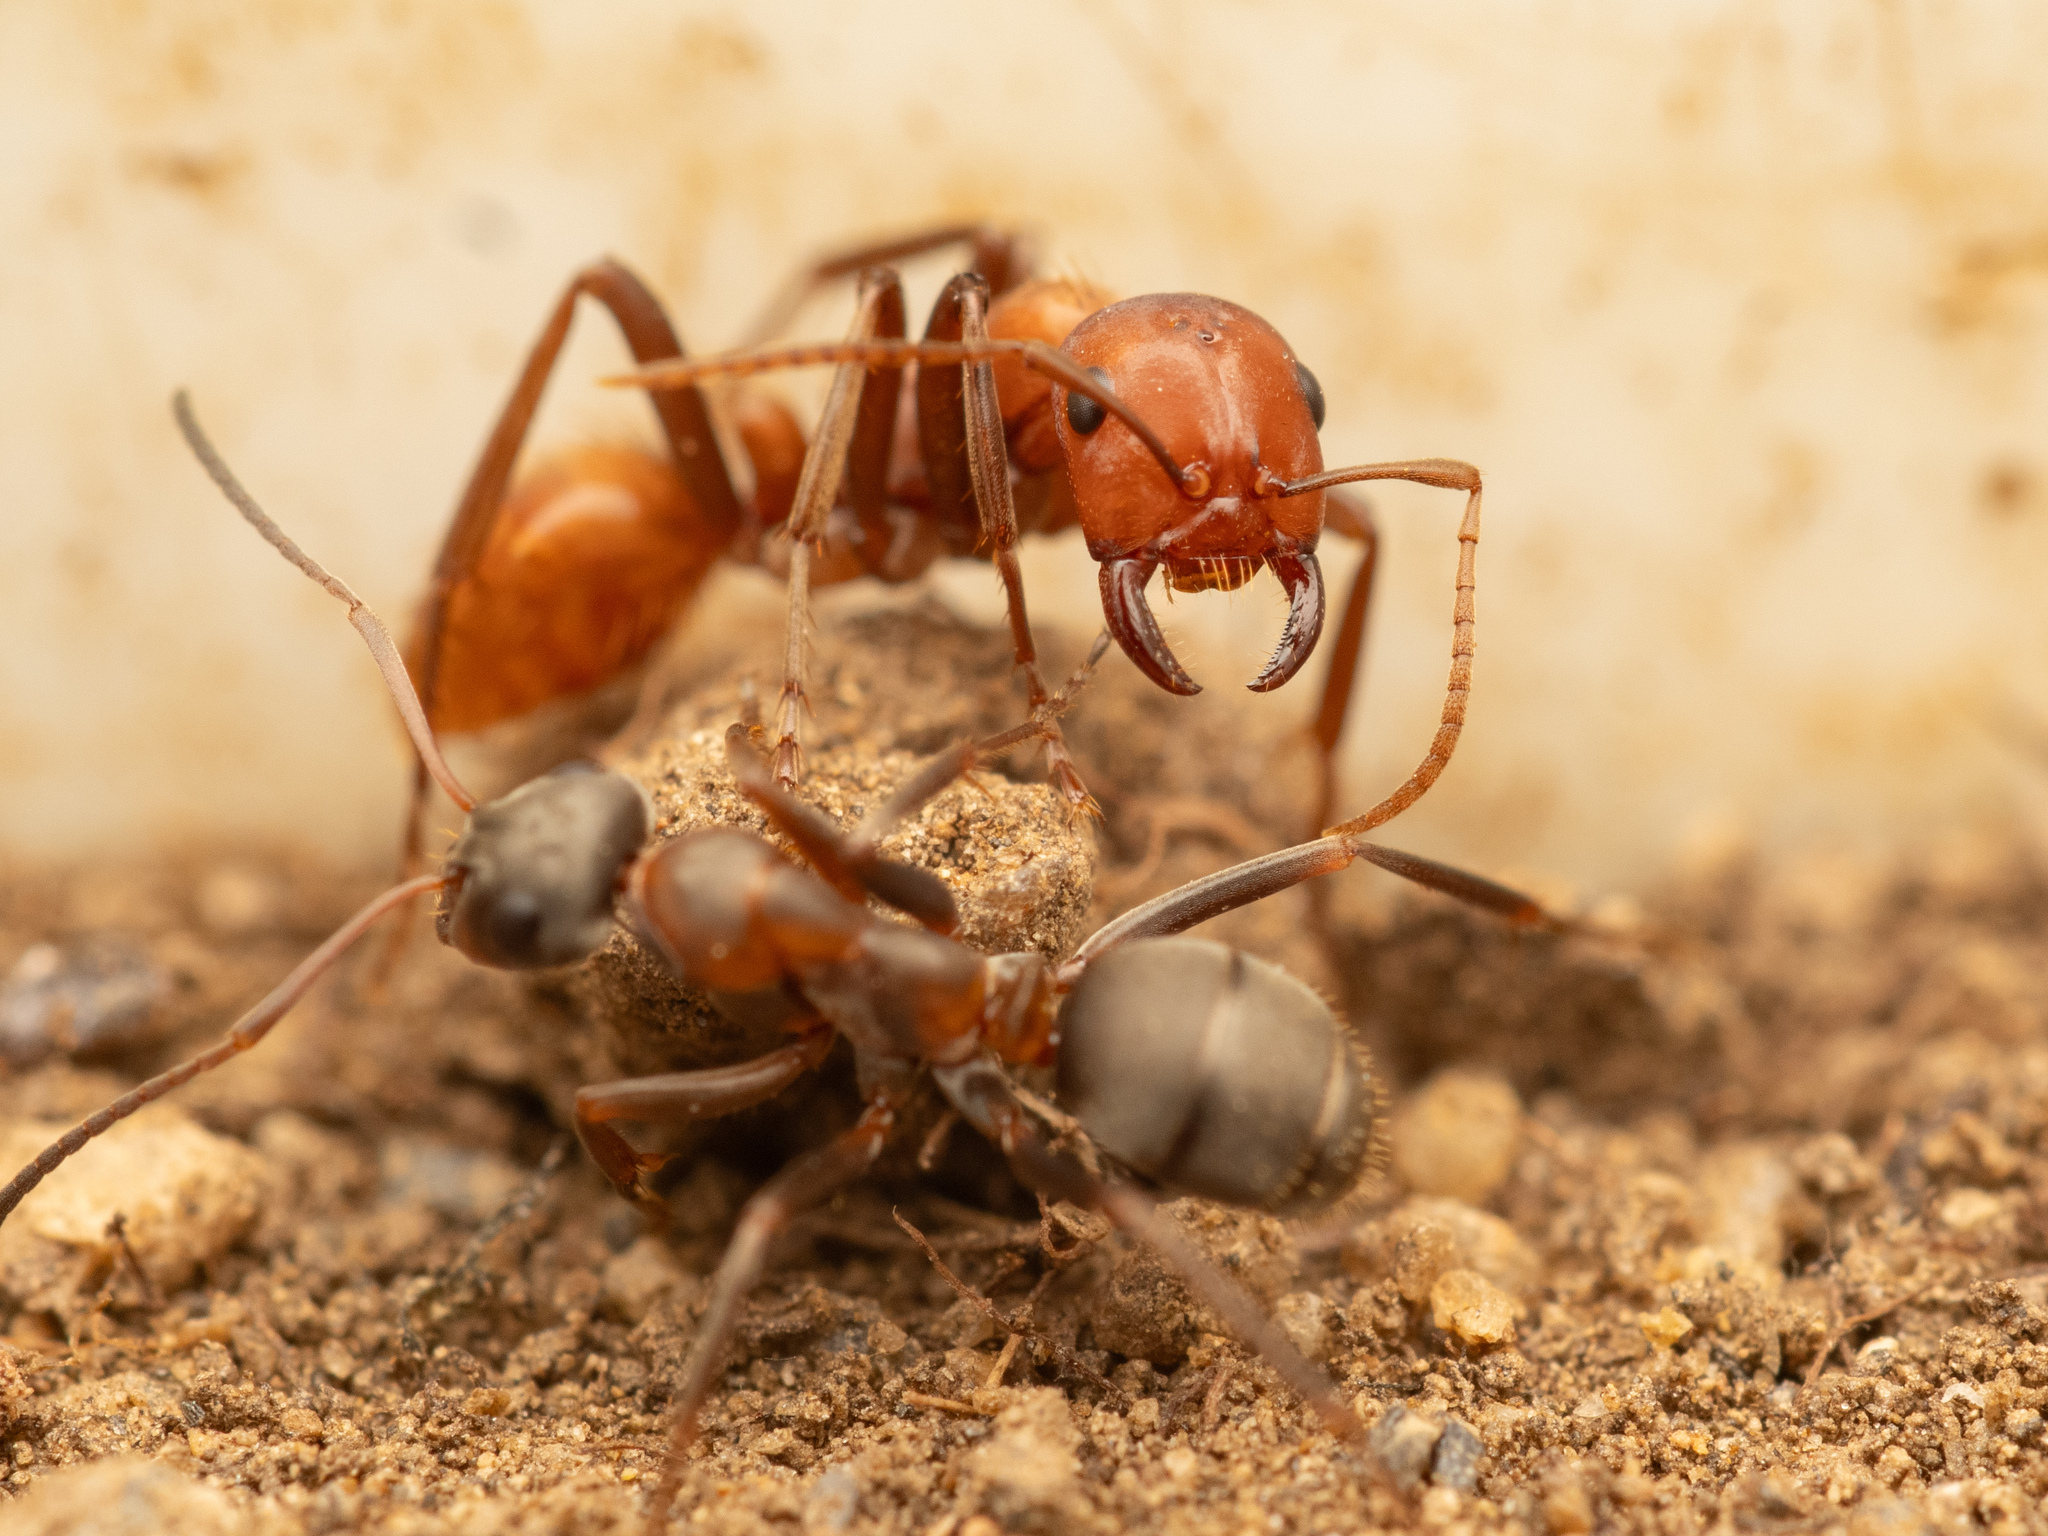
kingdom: Animalia
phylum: Arthropoda
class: Insecta
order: Hymenoptera
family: Formicidae
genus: Polyergus
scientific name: Polyergus rufescens
